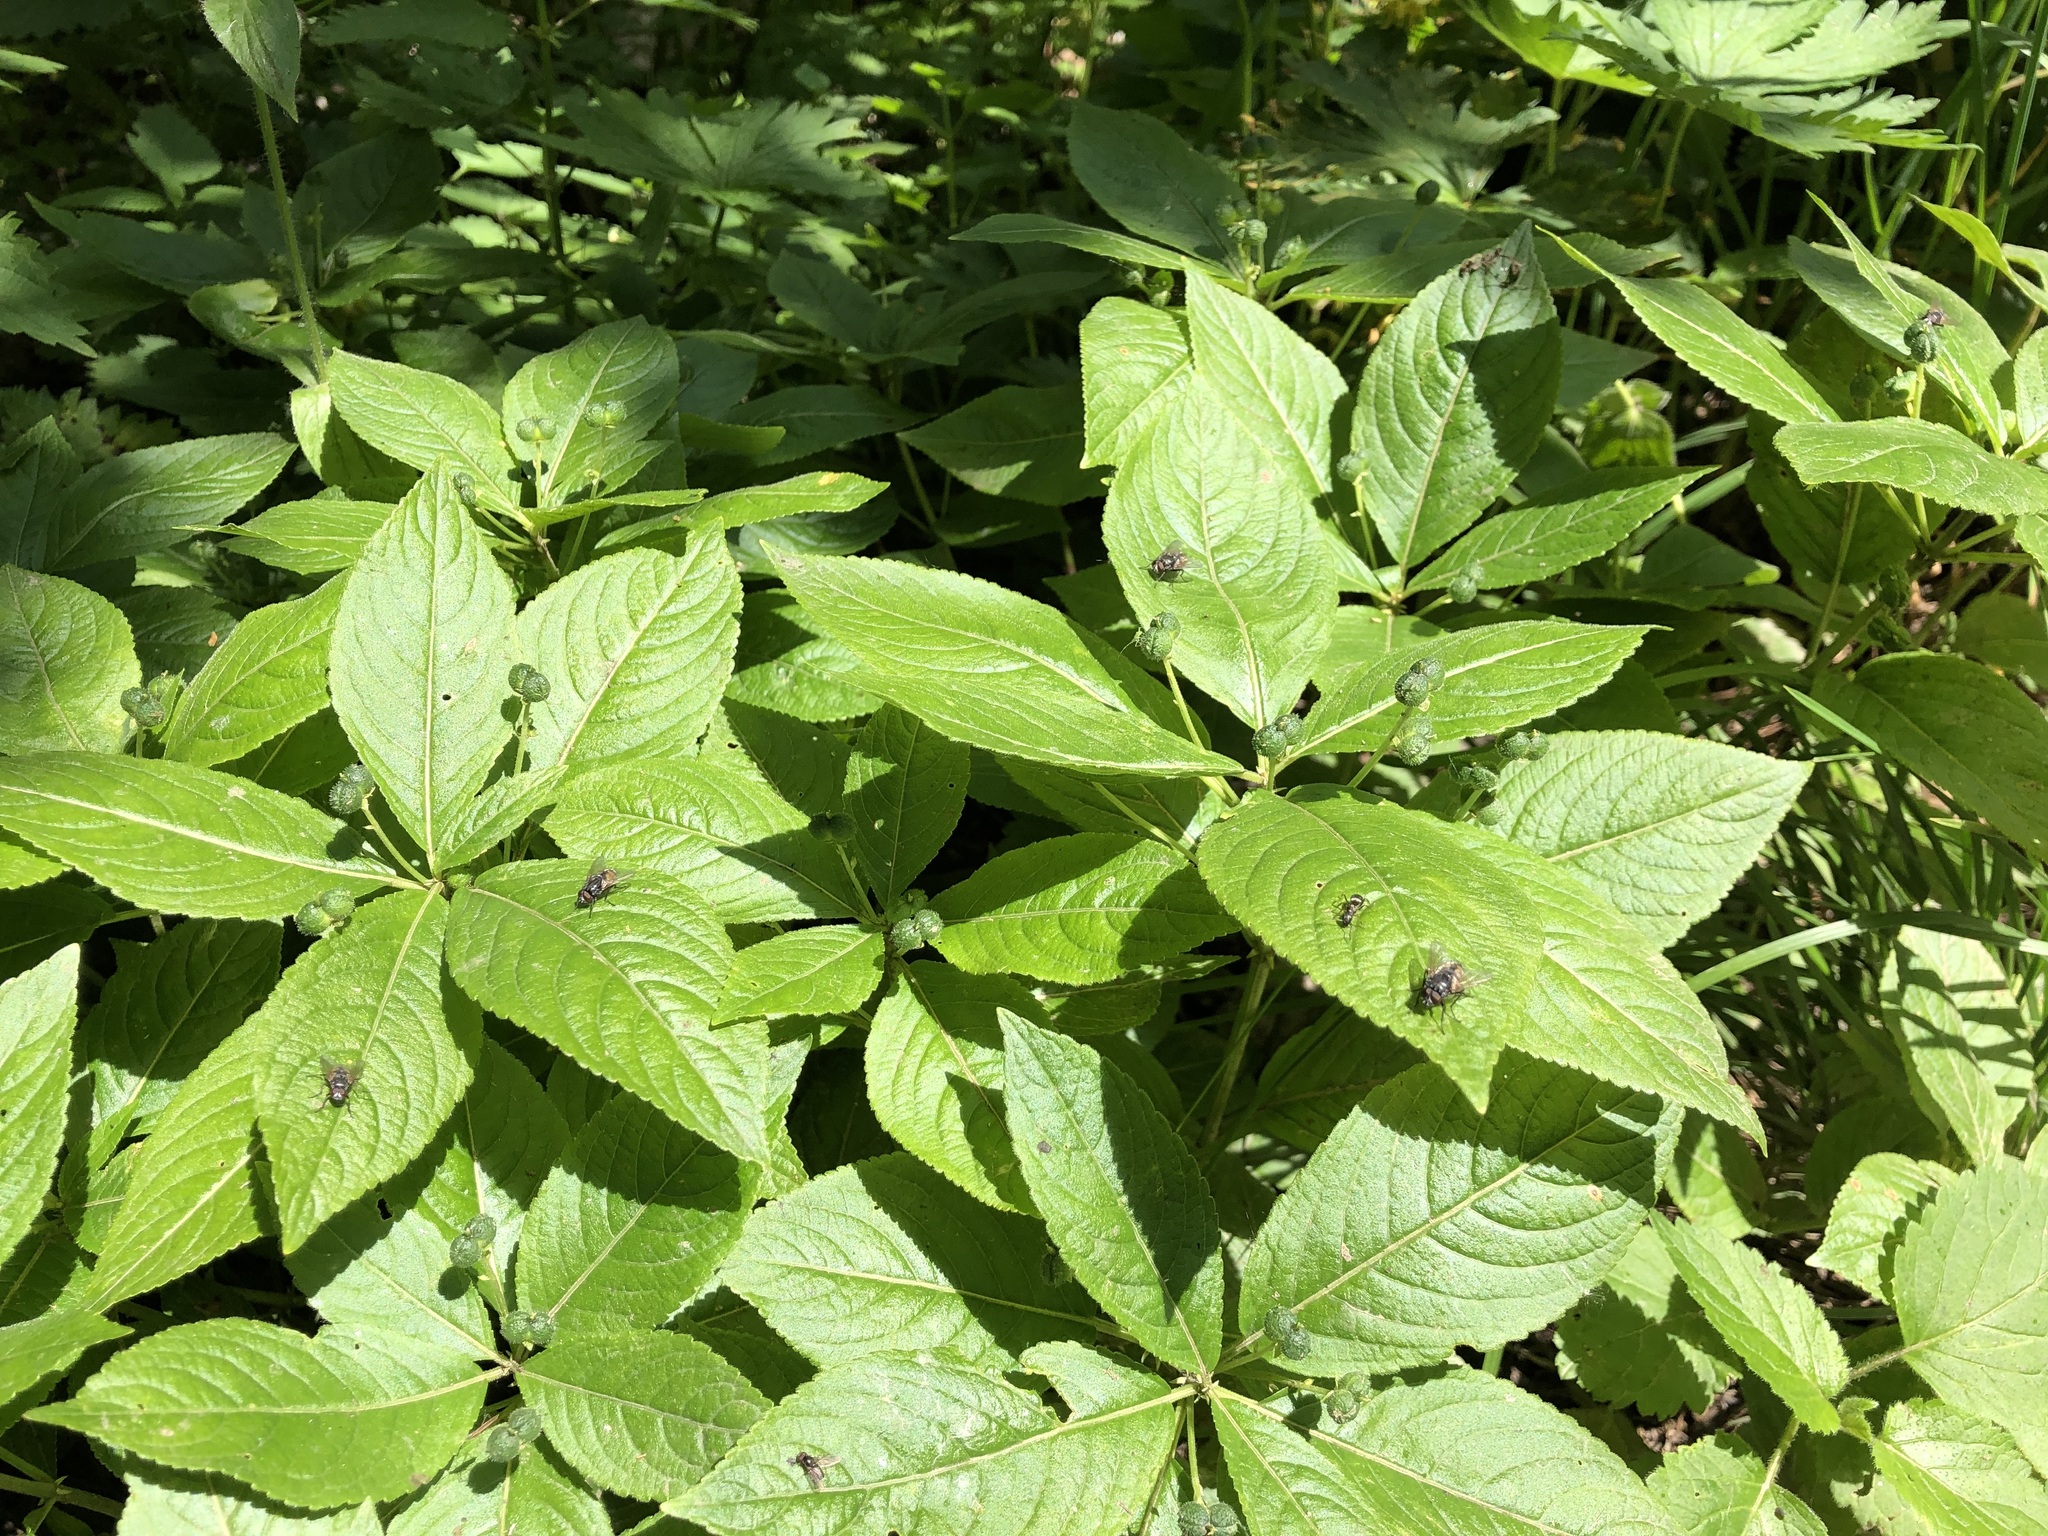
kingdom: Plantae
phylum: Tracheophyta
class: Magnoliopsida
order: Malpighiales
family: Euphorbiaceae
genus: Mercurialis
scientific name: Mercurialis perennis
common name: Dog mercury
